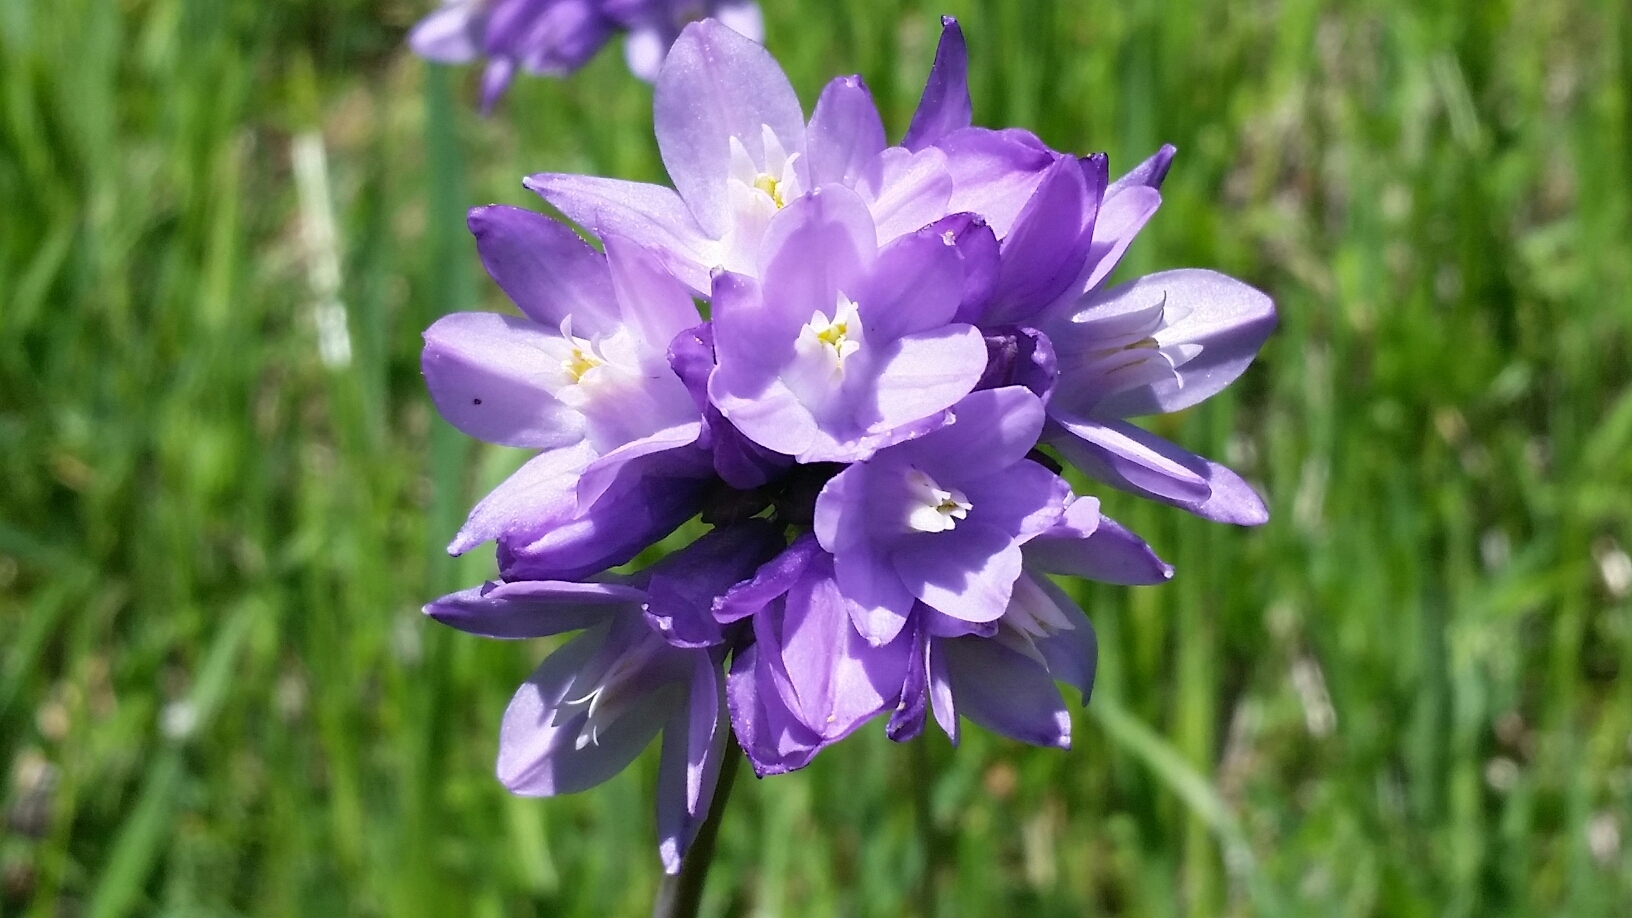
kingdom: Plantae
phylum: Tracheophyta
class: Liliopsida
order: Asparagales
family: Asparagaceae
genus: Dipterostemon
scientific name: Dipterostemon capitatus
